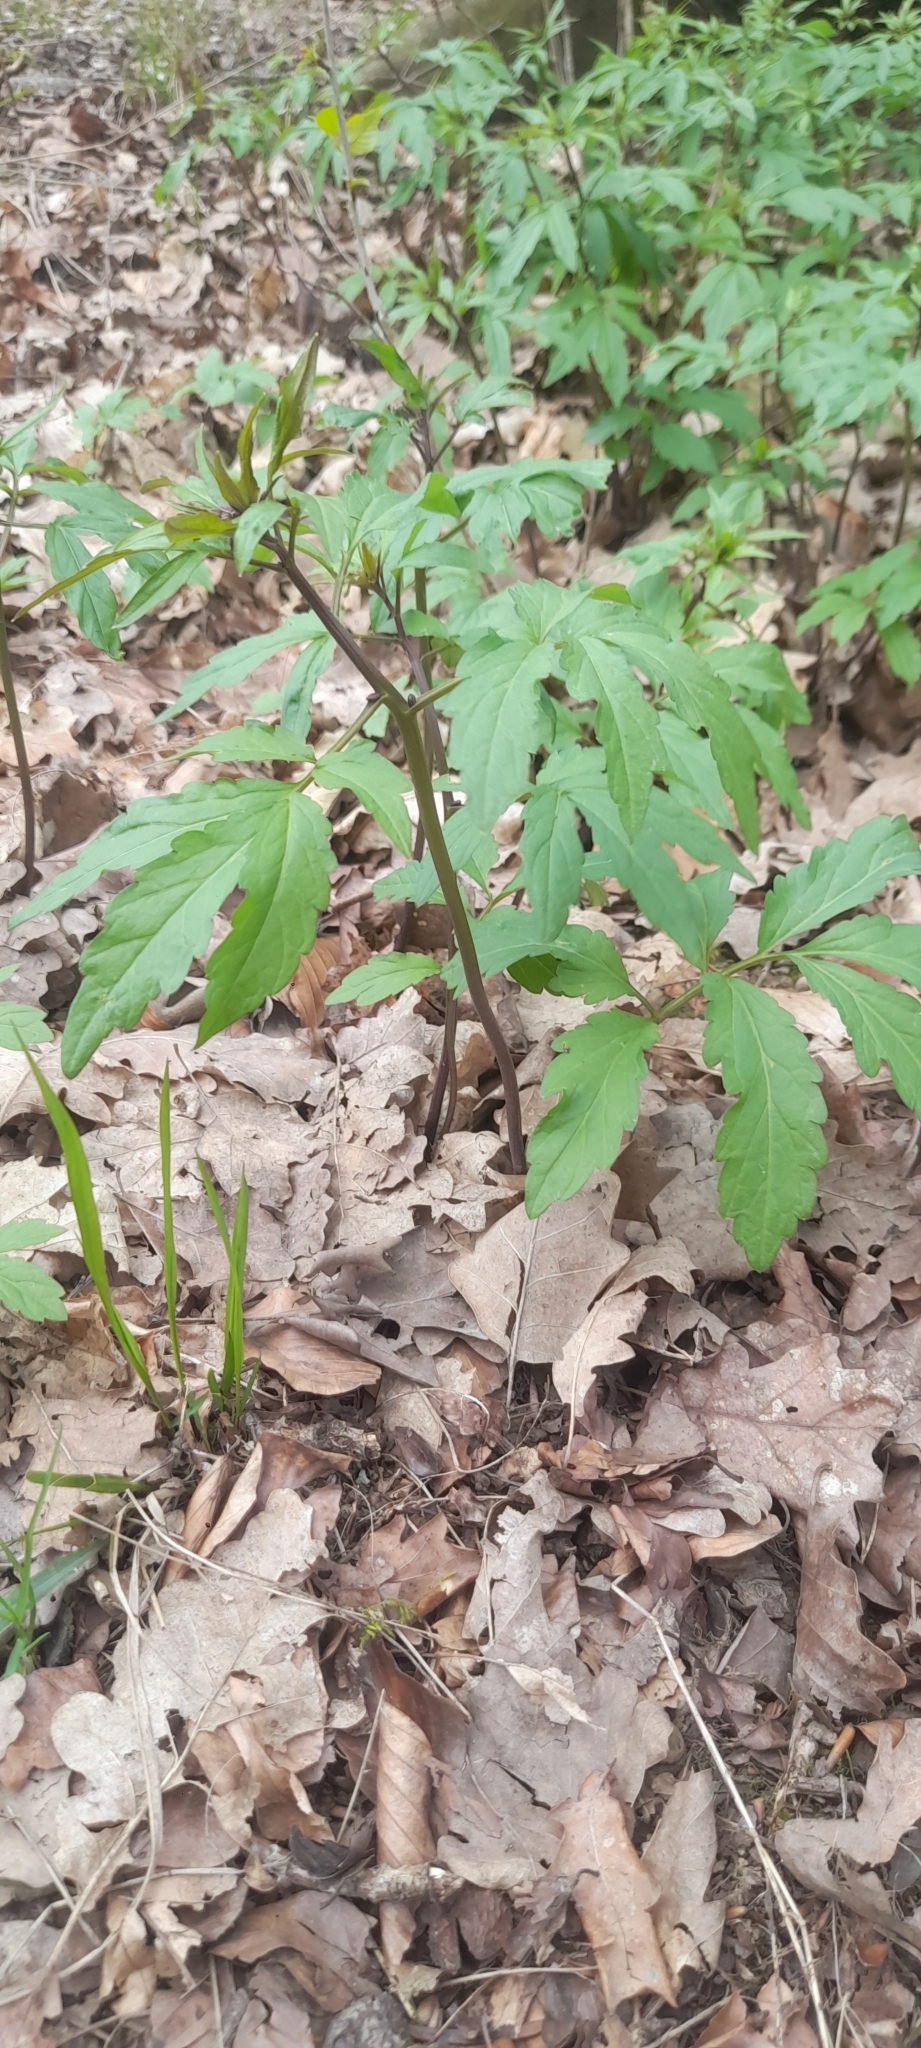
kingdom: Plantae
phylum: Tracheophyta
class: Magnoliopsida
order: Brassicales
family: Brassicaceae
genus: Cardamine
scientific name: Cardamine bulbifera
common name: Coralroot bittercress
